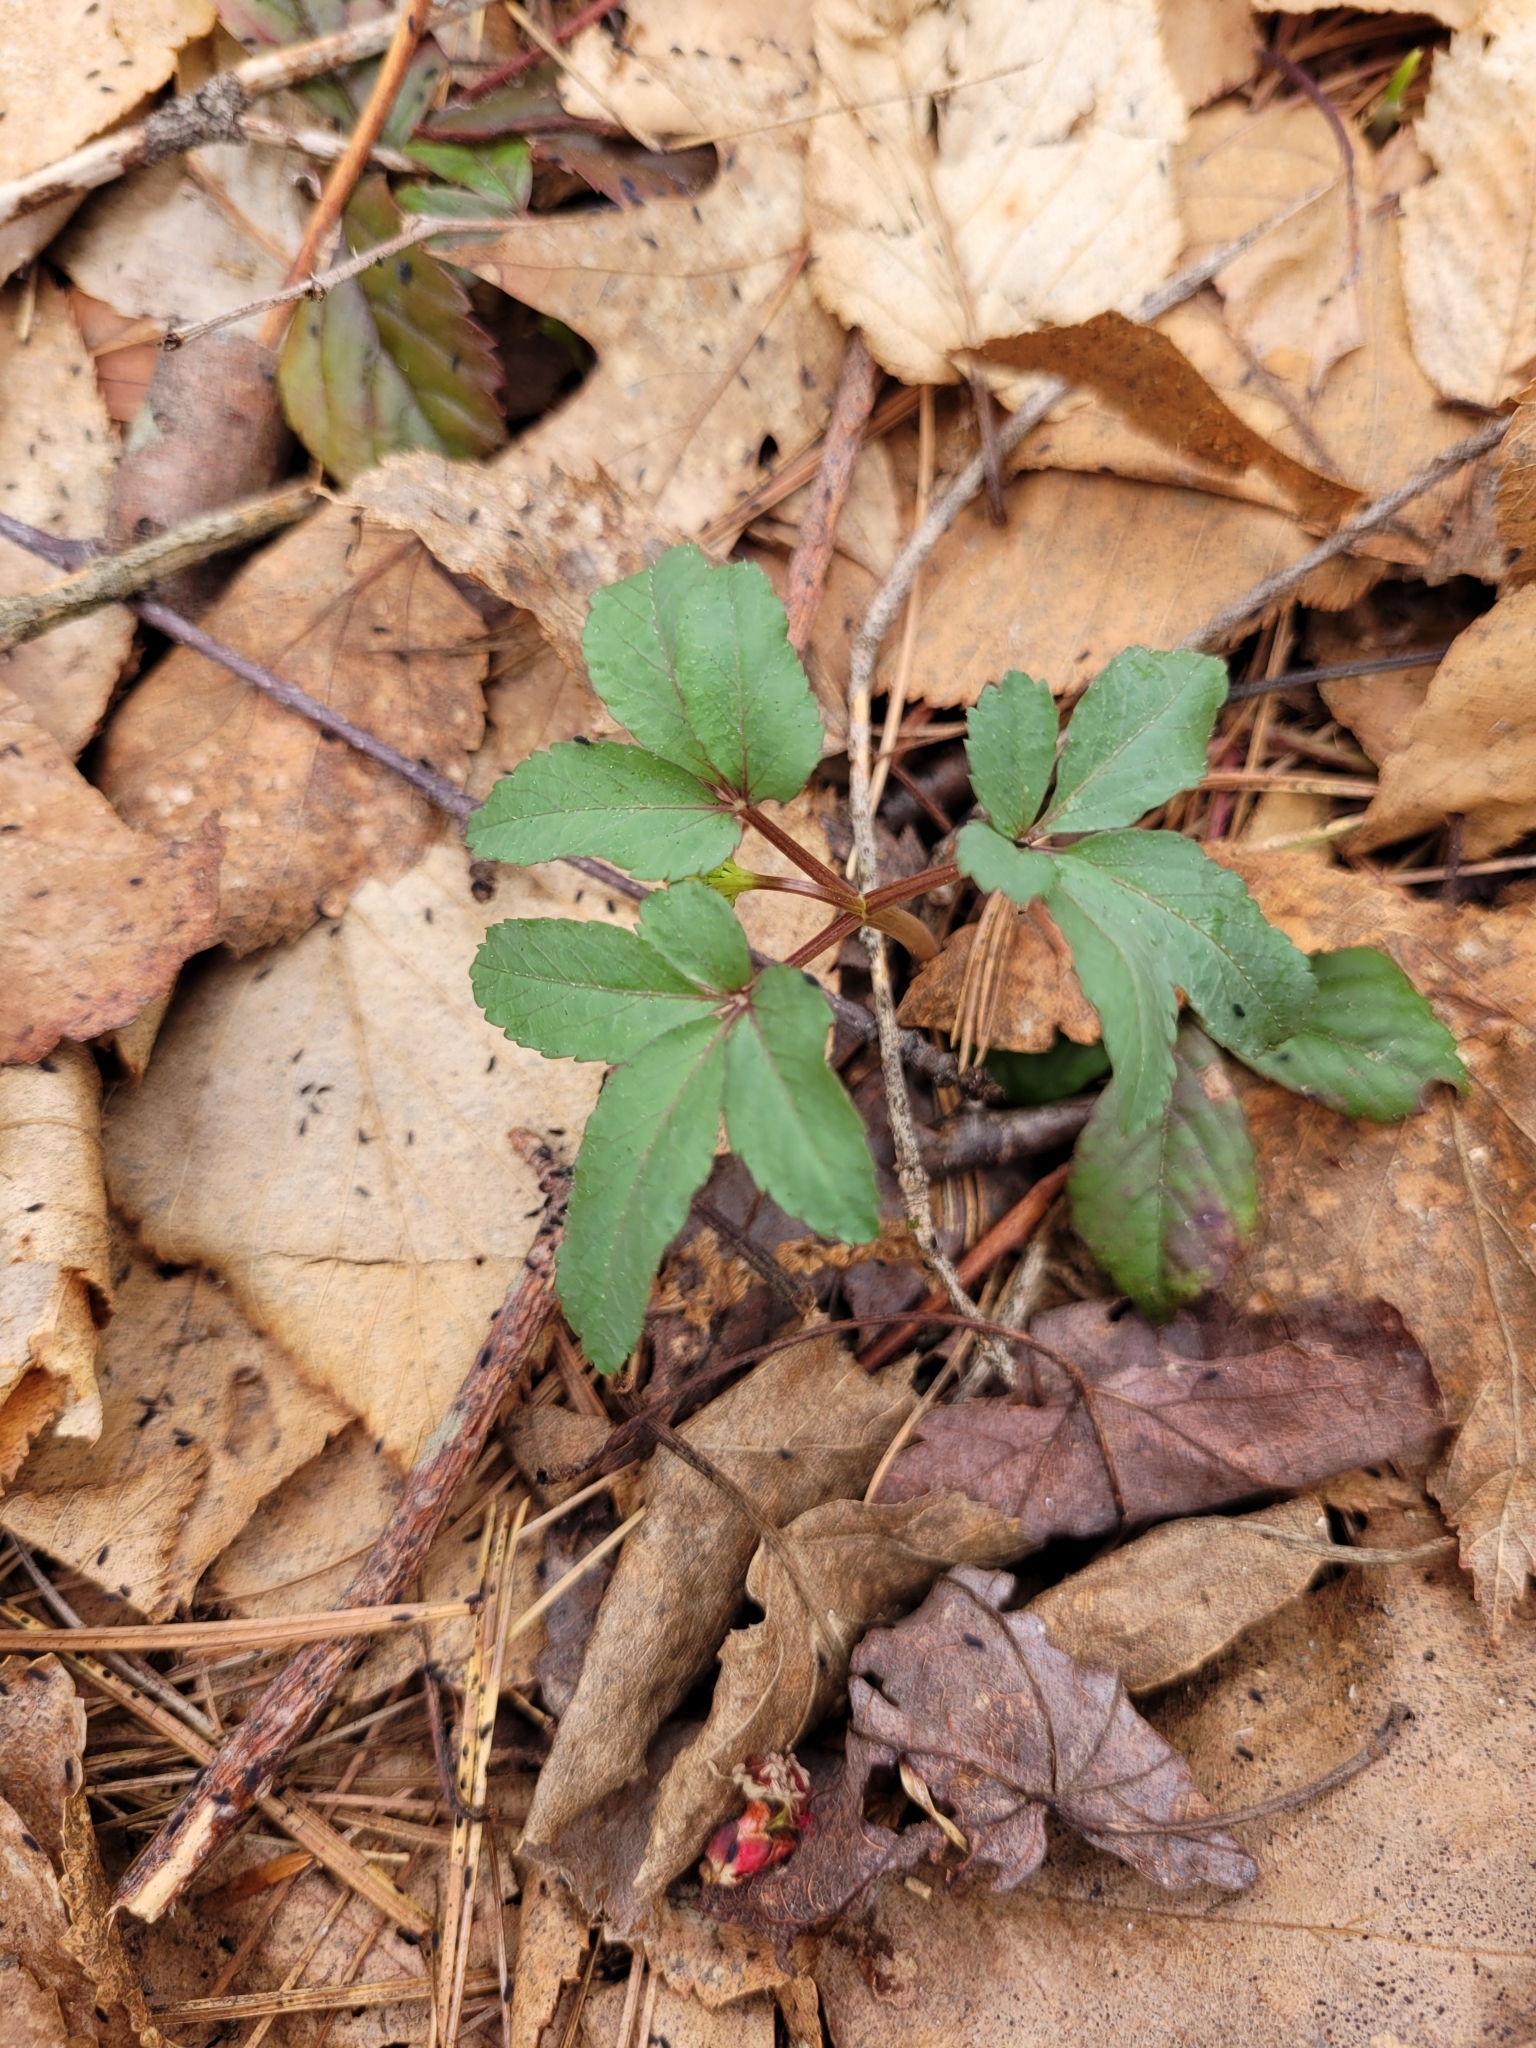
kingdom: Plantae
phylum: Tracheophyta
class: Magnoliopsida
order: Apiales
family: Araliaceae
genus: Panax
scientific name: Panax trifolius
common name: Dwarf ginseng
